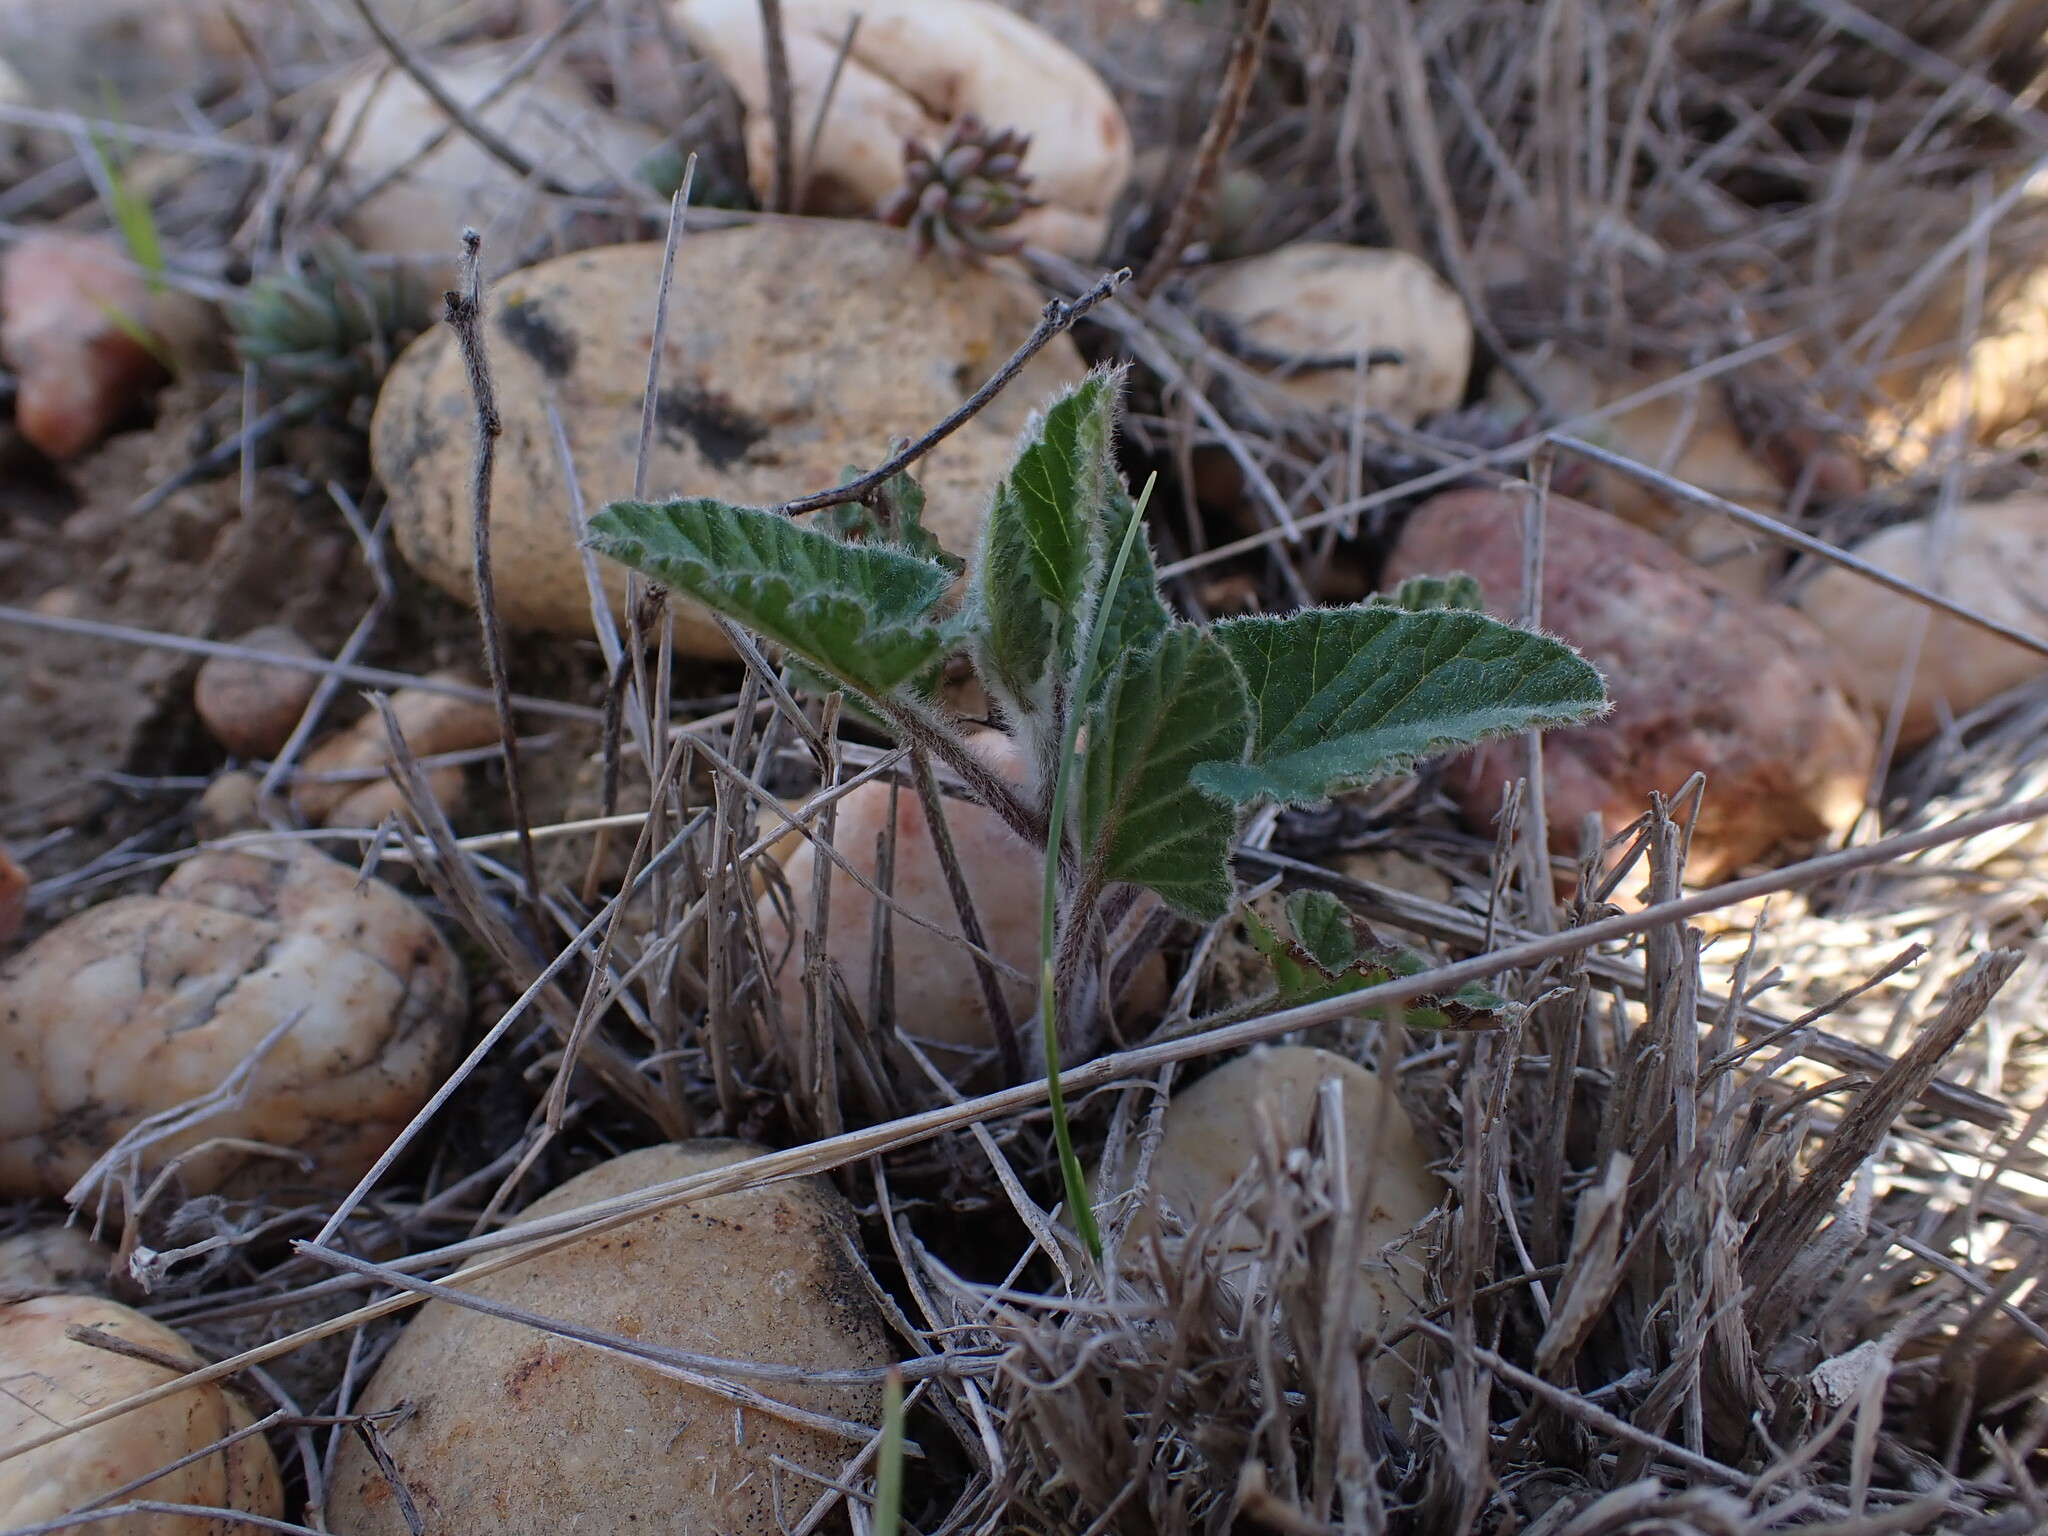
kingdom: Plantae
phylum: Tracheophyta
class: Magnoliopsida
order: Solanales
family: Convolvulaceae
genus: Convolvulus
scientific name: Convolvulus althaeoides
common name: Mallow bindweed
